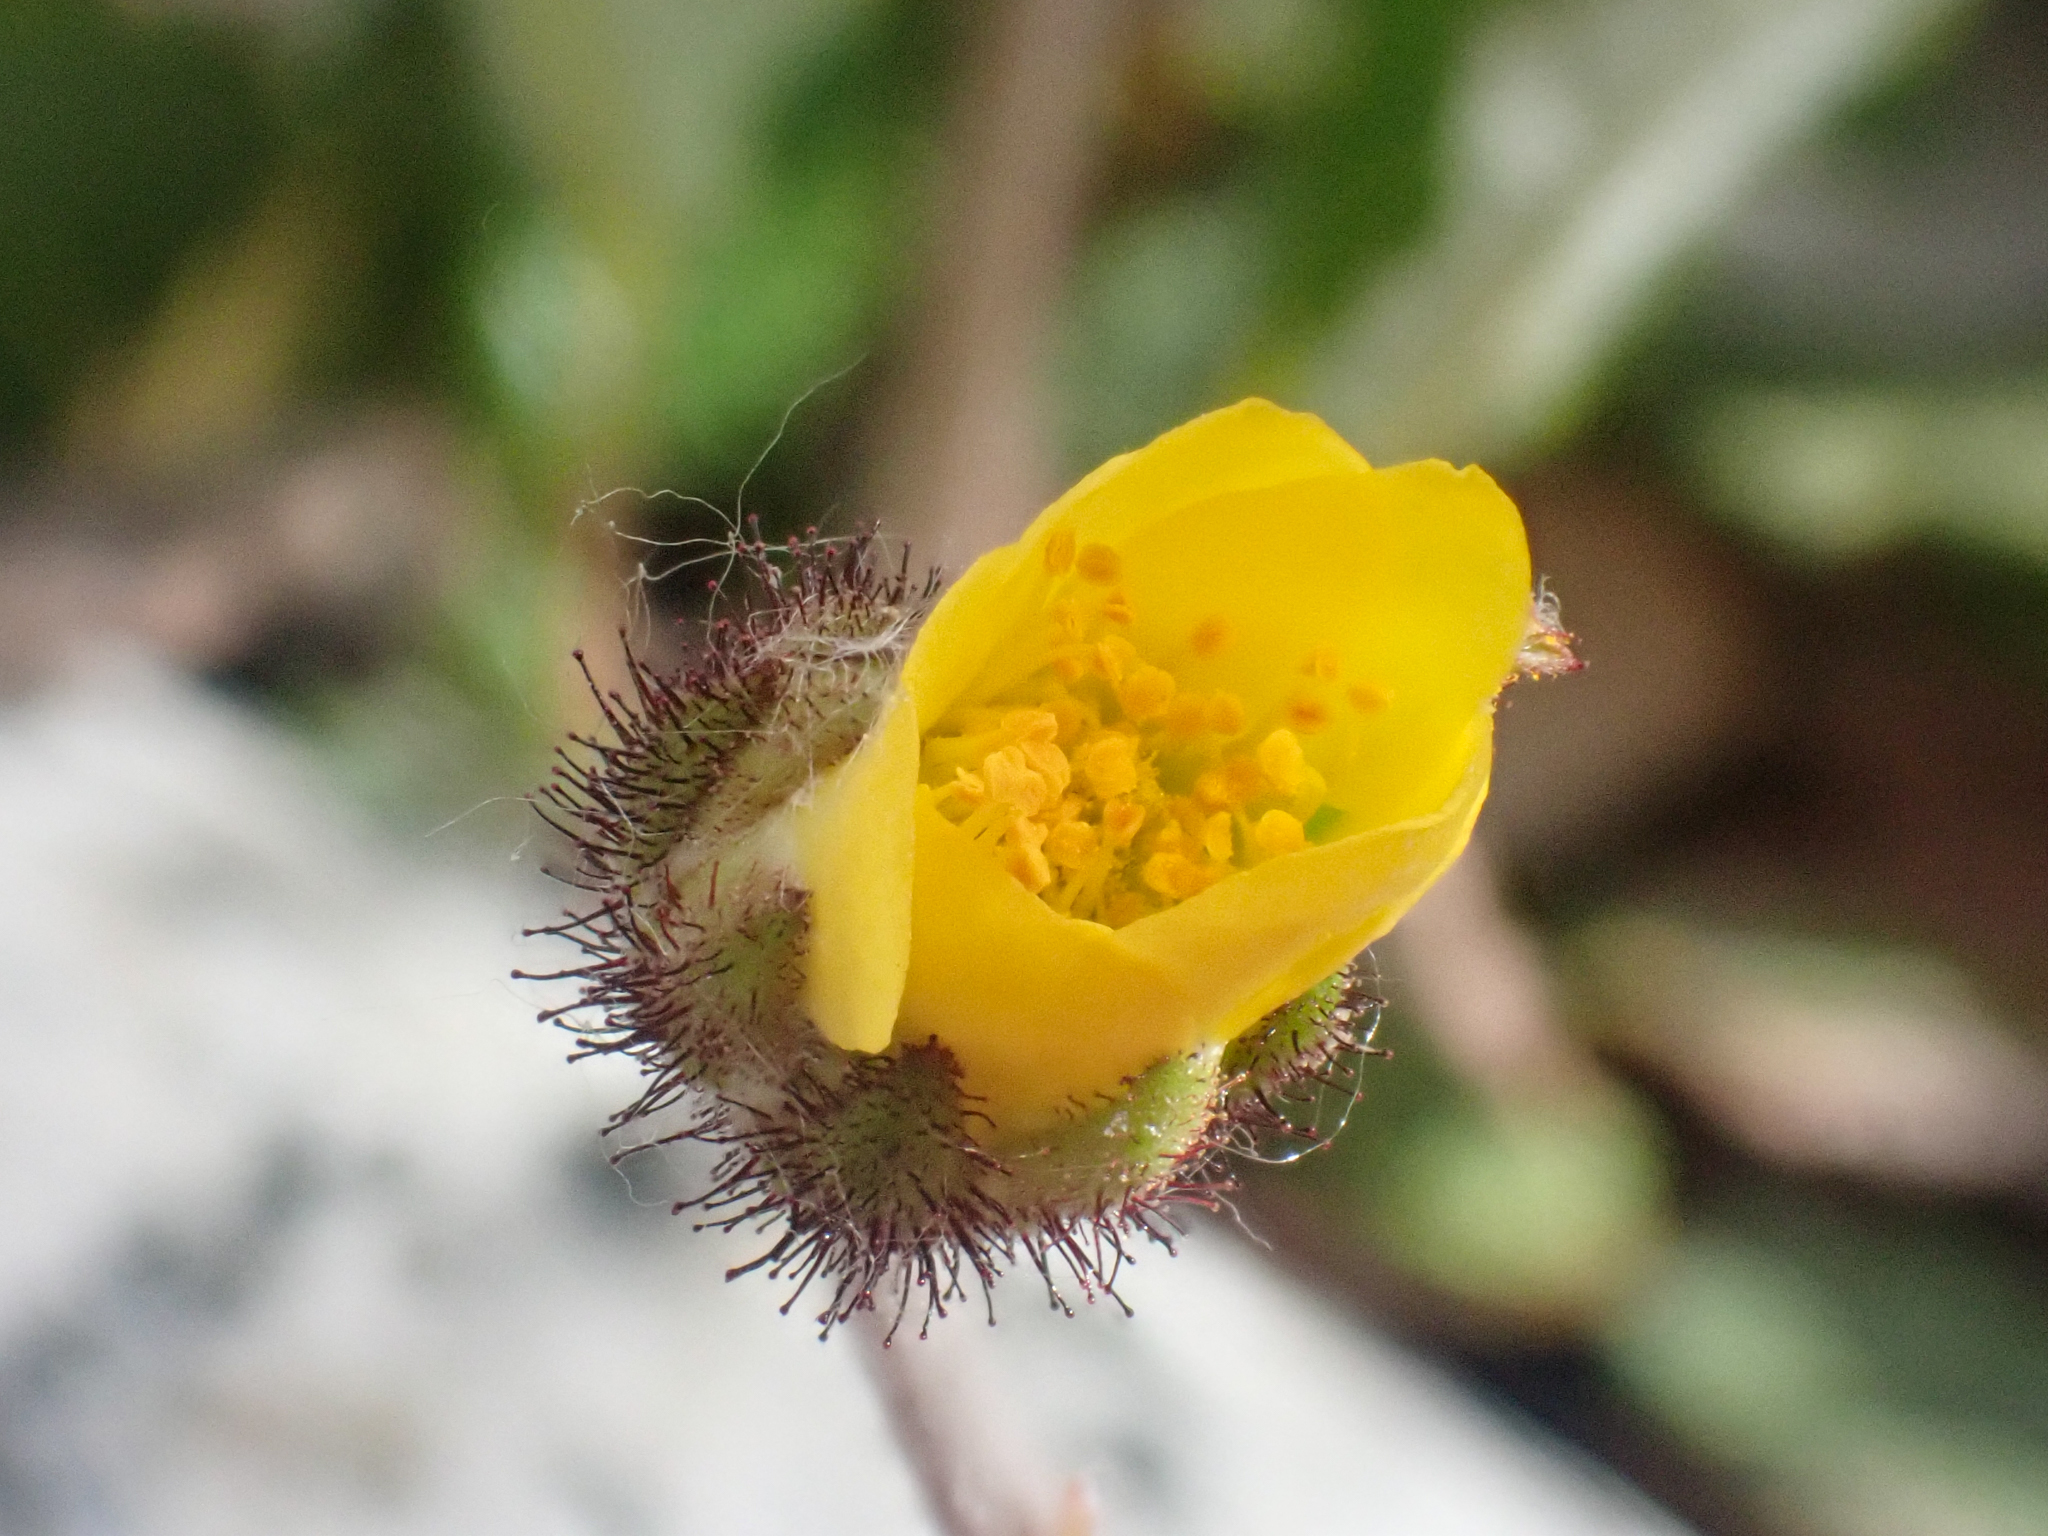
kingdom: Plantae
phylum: Tracheophyta
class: Magnoliopsida
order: Rosales
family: Rosaceae
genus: Dryas
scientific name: Dryas drummondii
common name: Drummond's dryad
